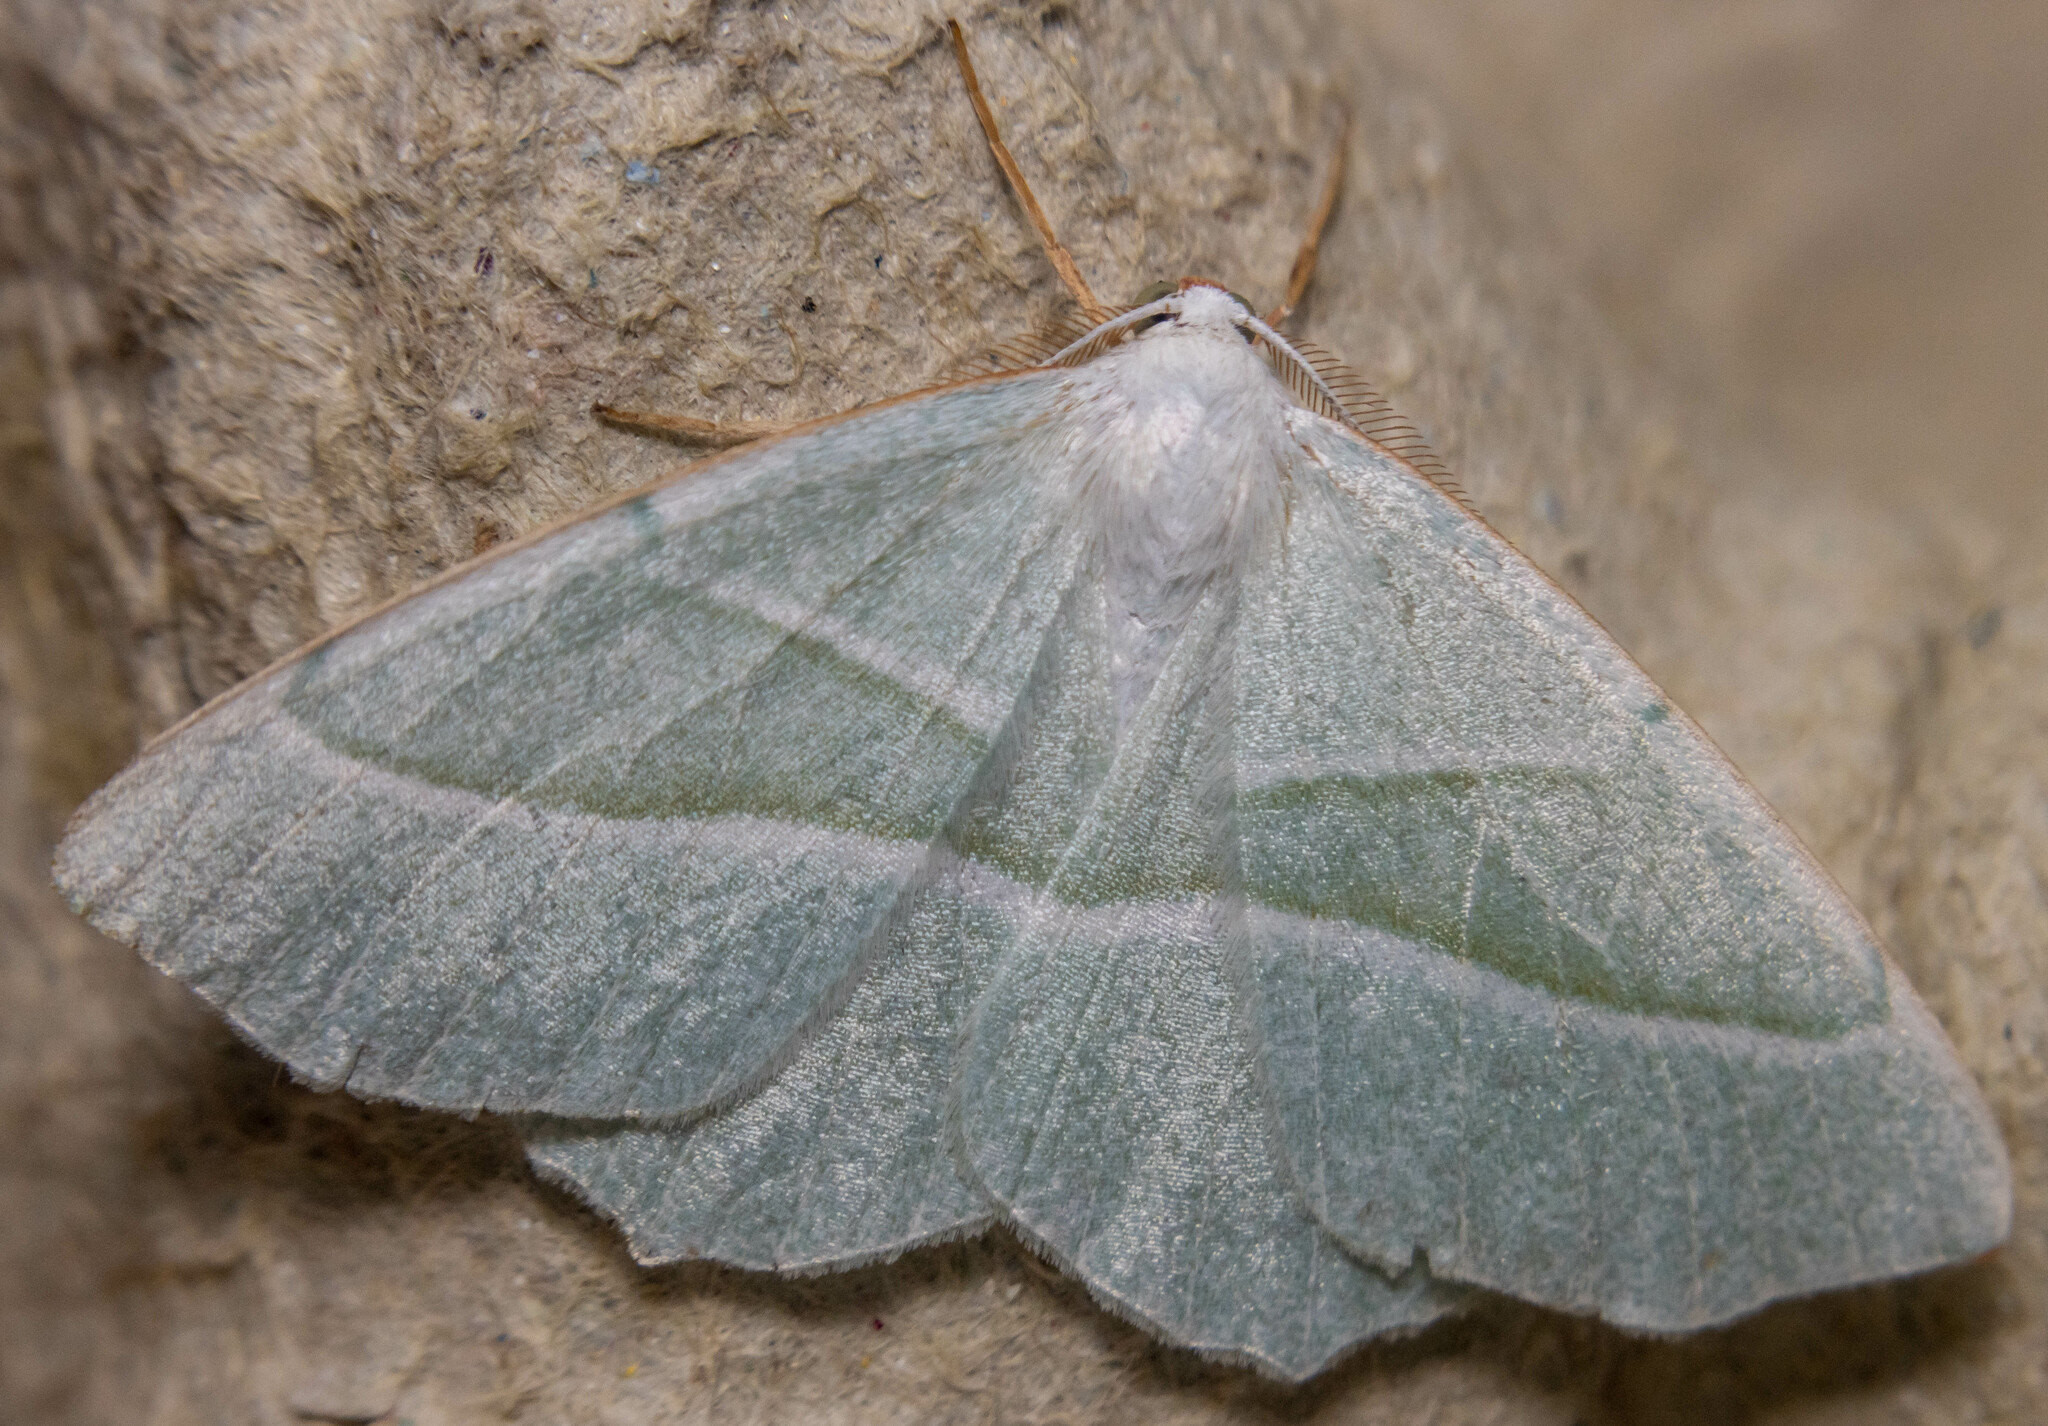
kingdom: Animalia
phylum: Arthropoda
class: Insecta
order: Lepidoptera
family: Geometridae
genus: Campaea
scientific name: Campaea margaritaria
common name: Light emerald
